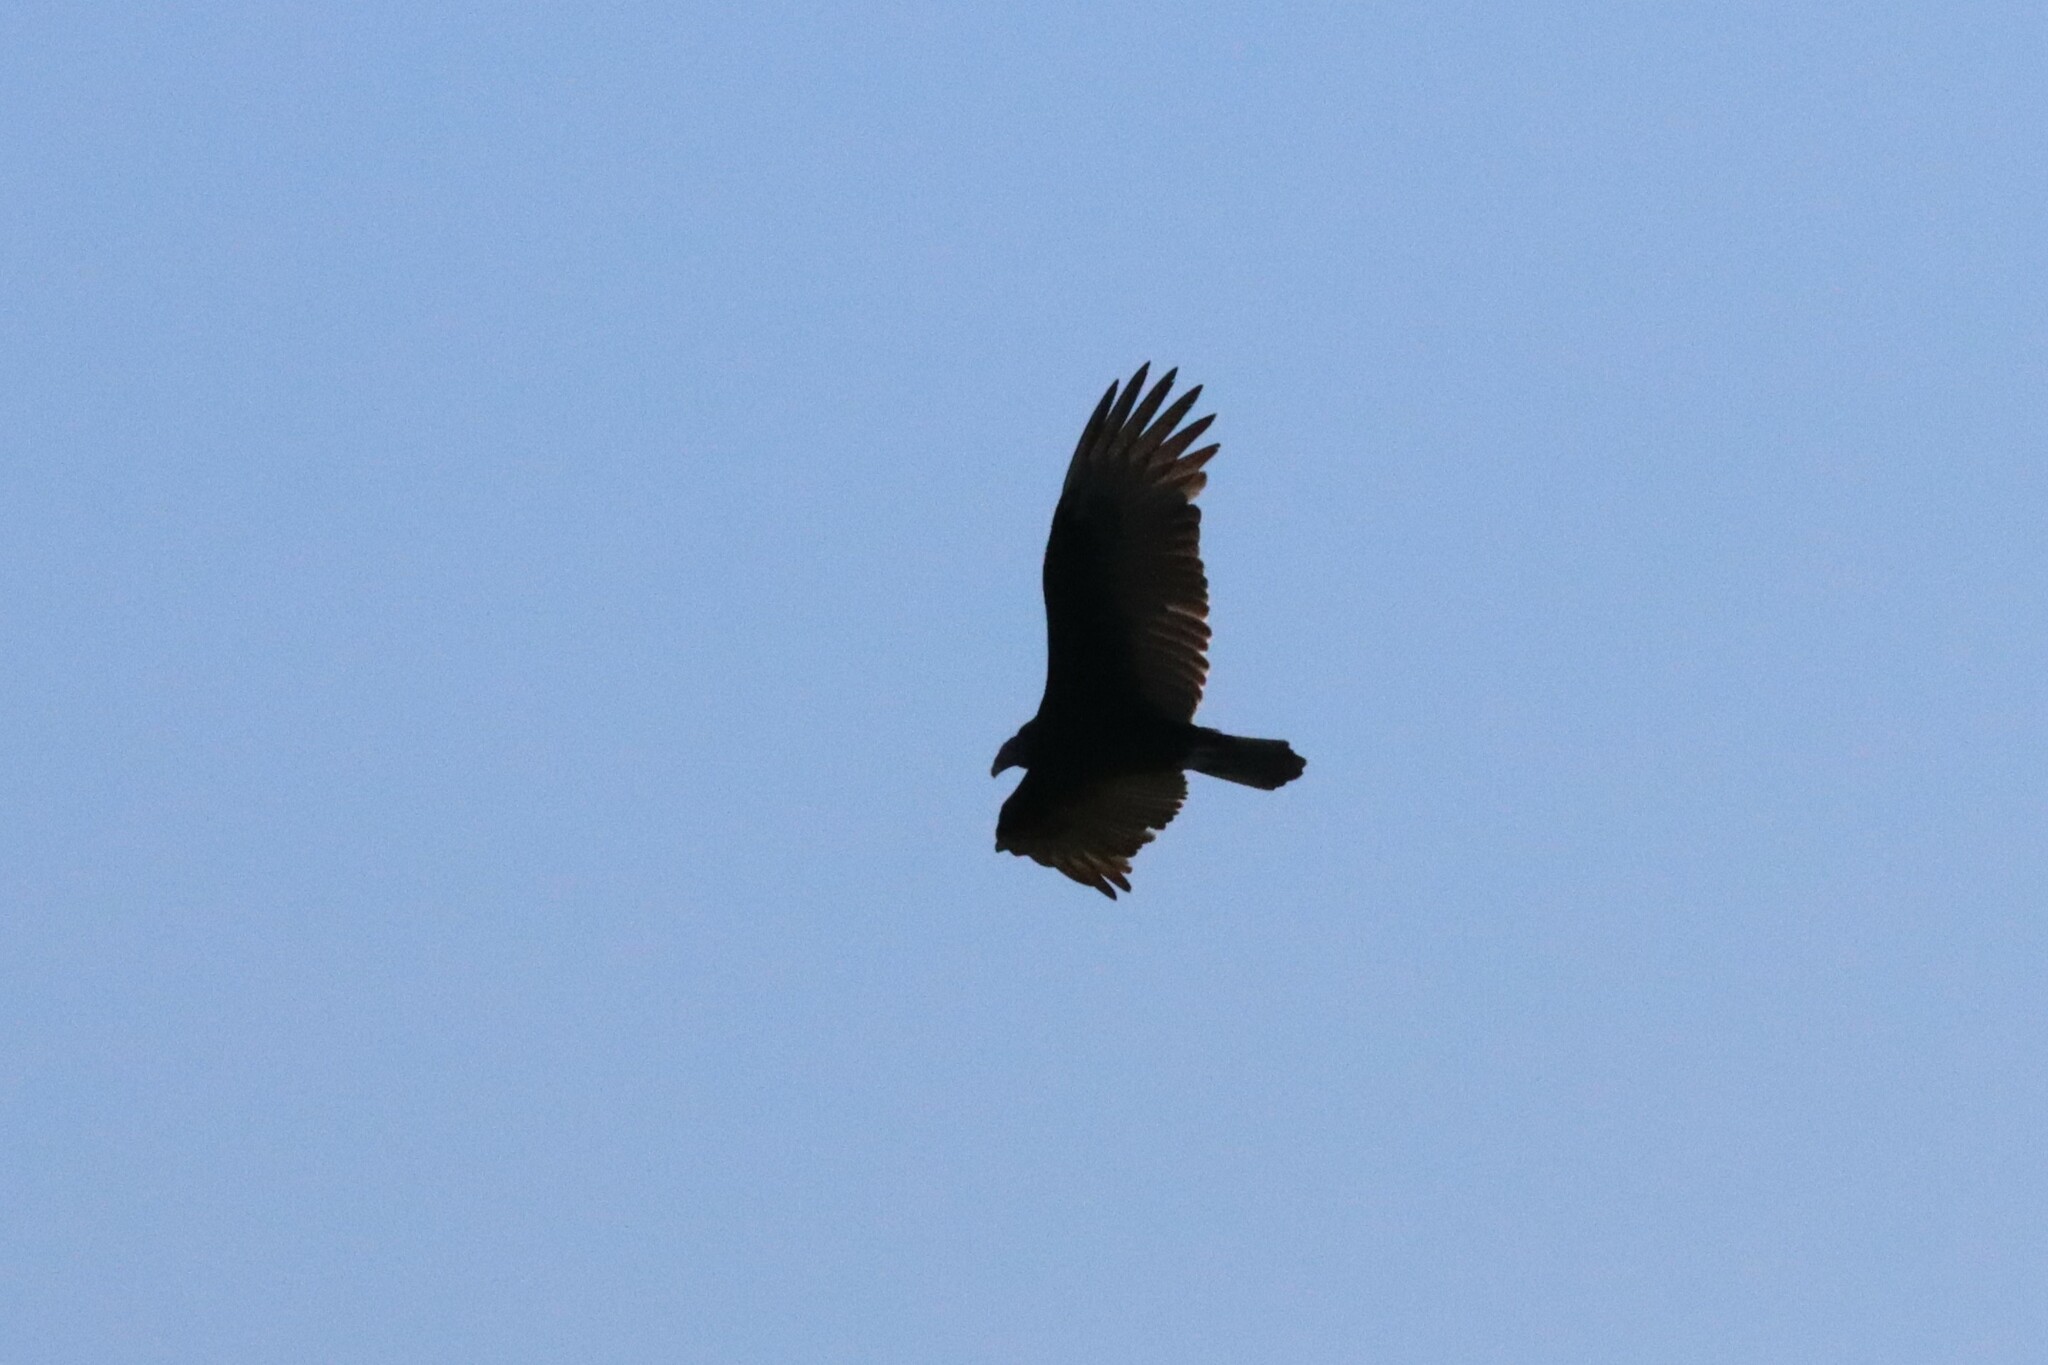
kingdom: Animalia
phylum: Chordata
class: Aves
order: Accipitriformes
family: Cathartidae
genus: Cathartes
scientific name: Cathartes aura
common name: Turkey vulture
